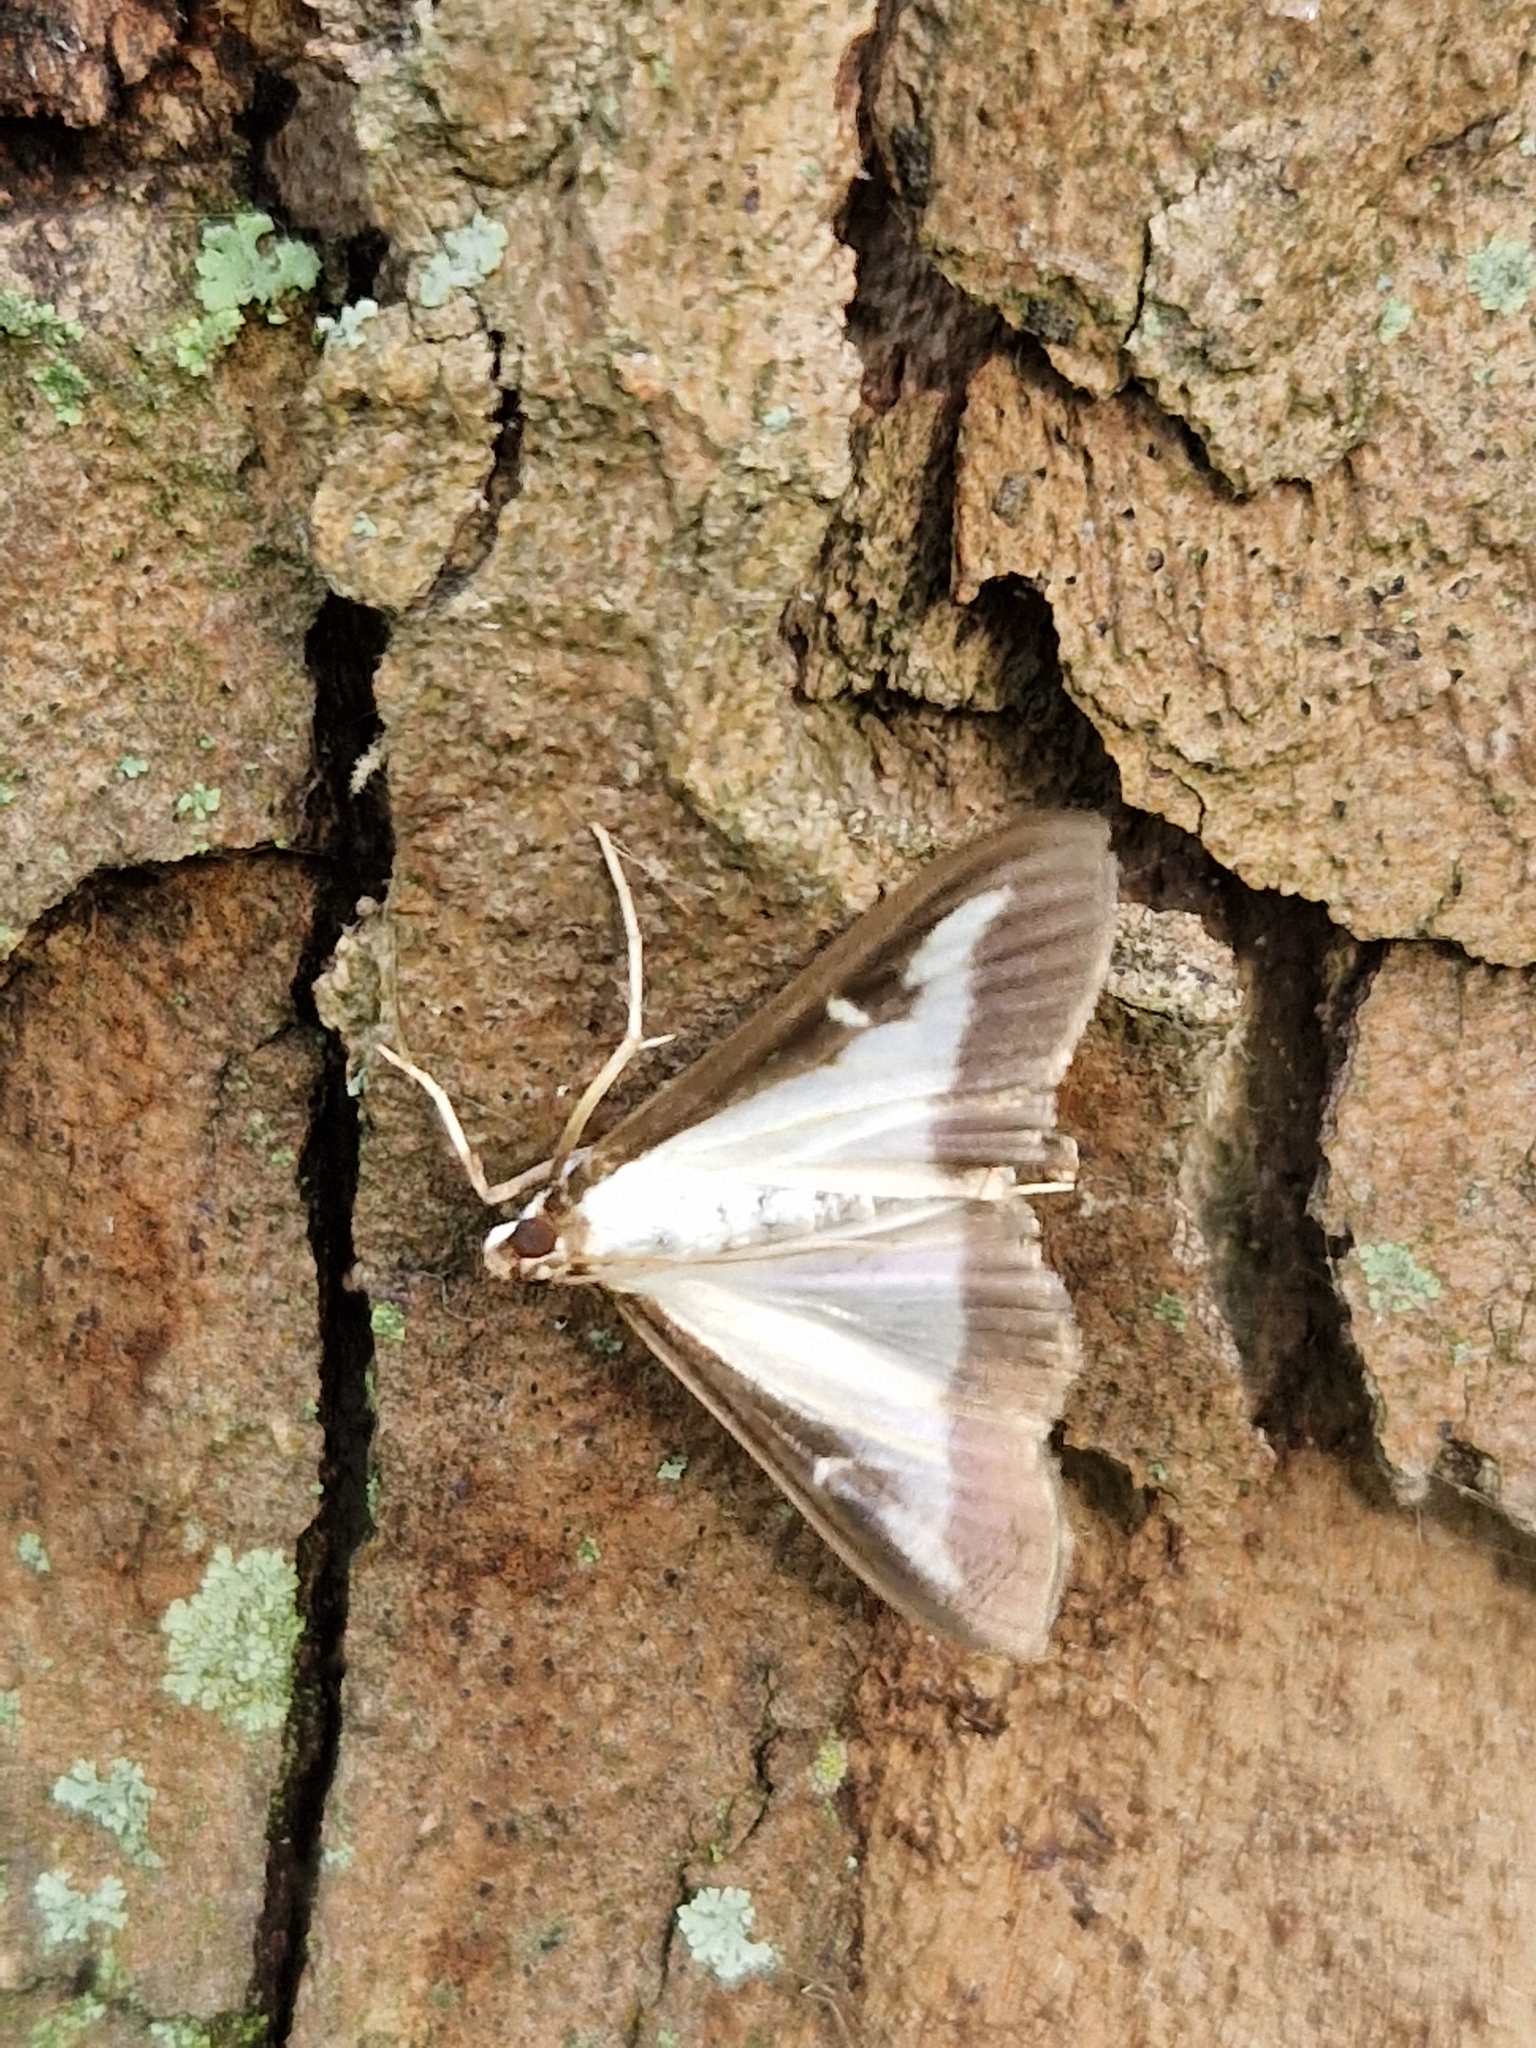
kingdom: Animalia
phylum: Arthropoda
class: Insecta
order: Lepidoptera
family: Crambidae
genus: Cydalima
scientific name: Cydalima perspectalis
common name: Box tree moth
